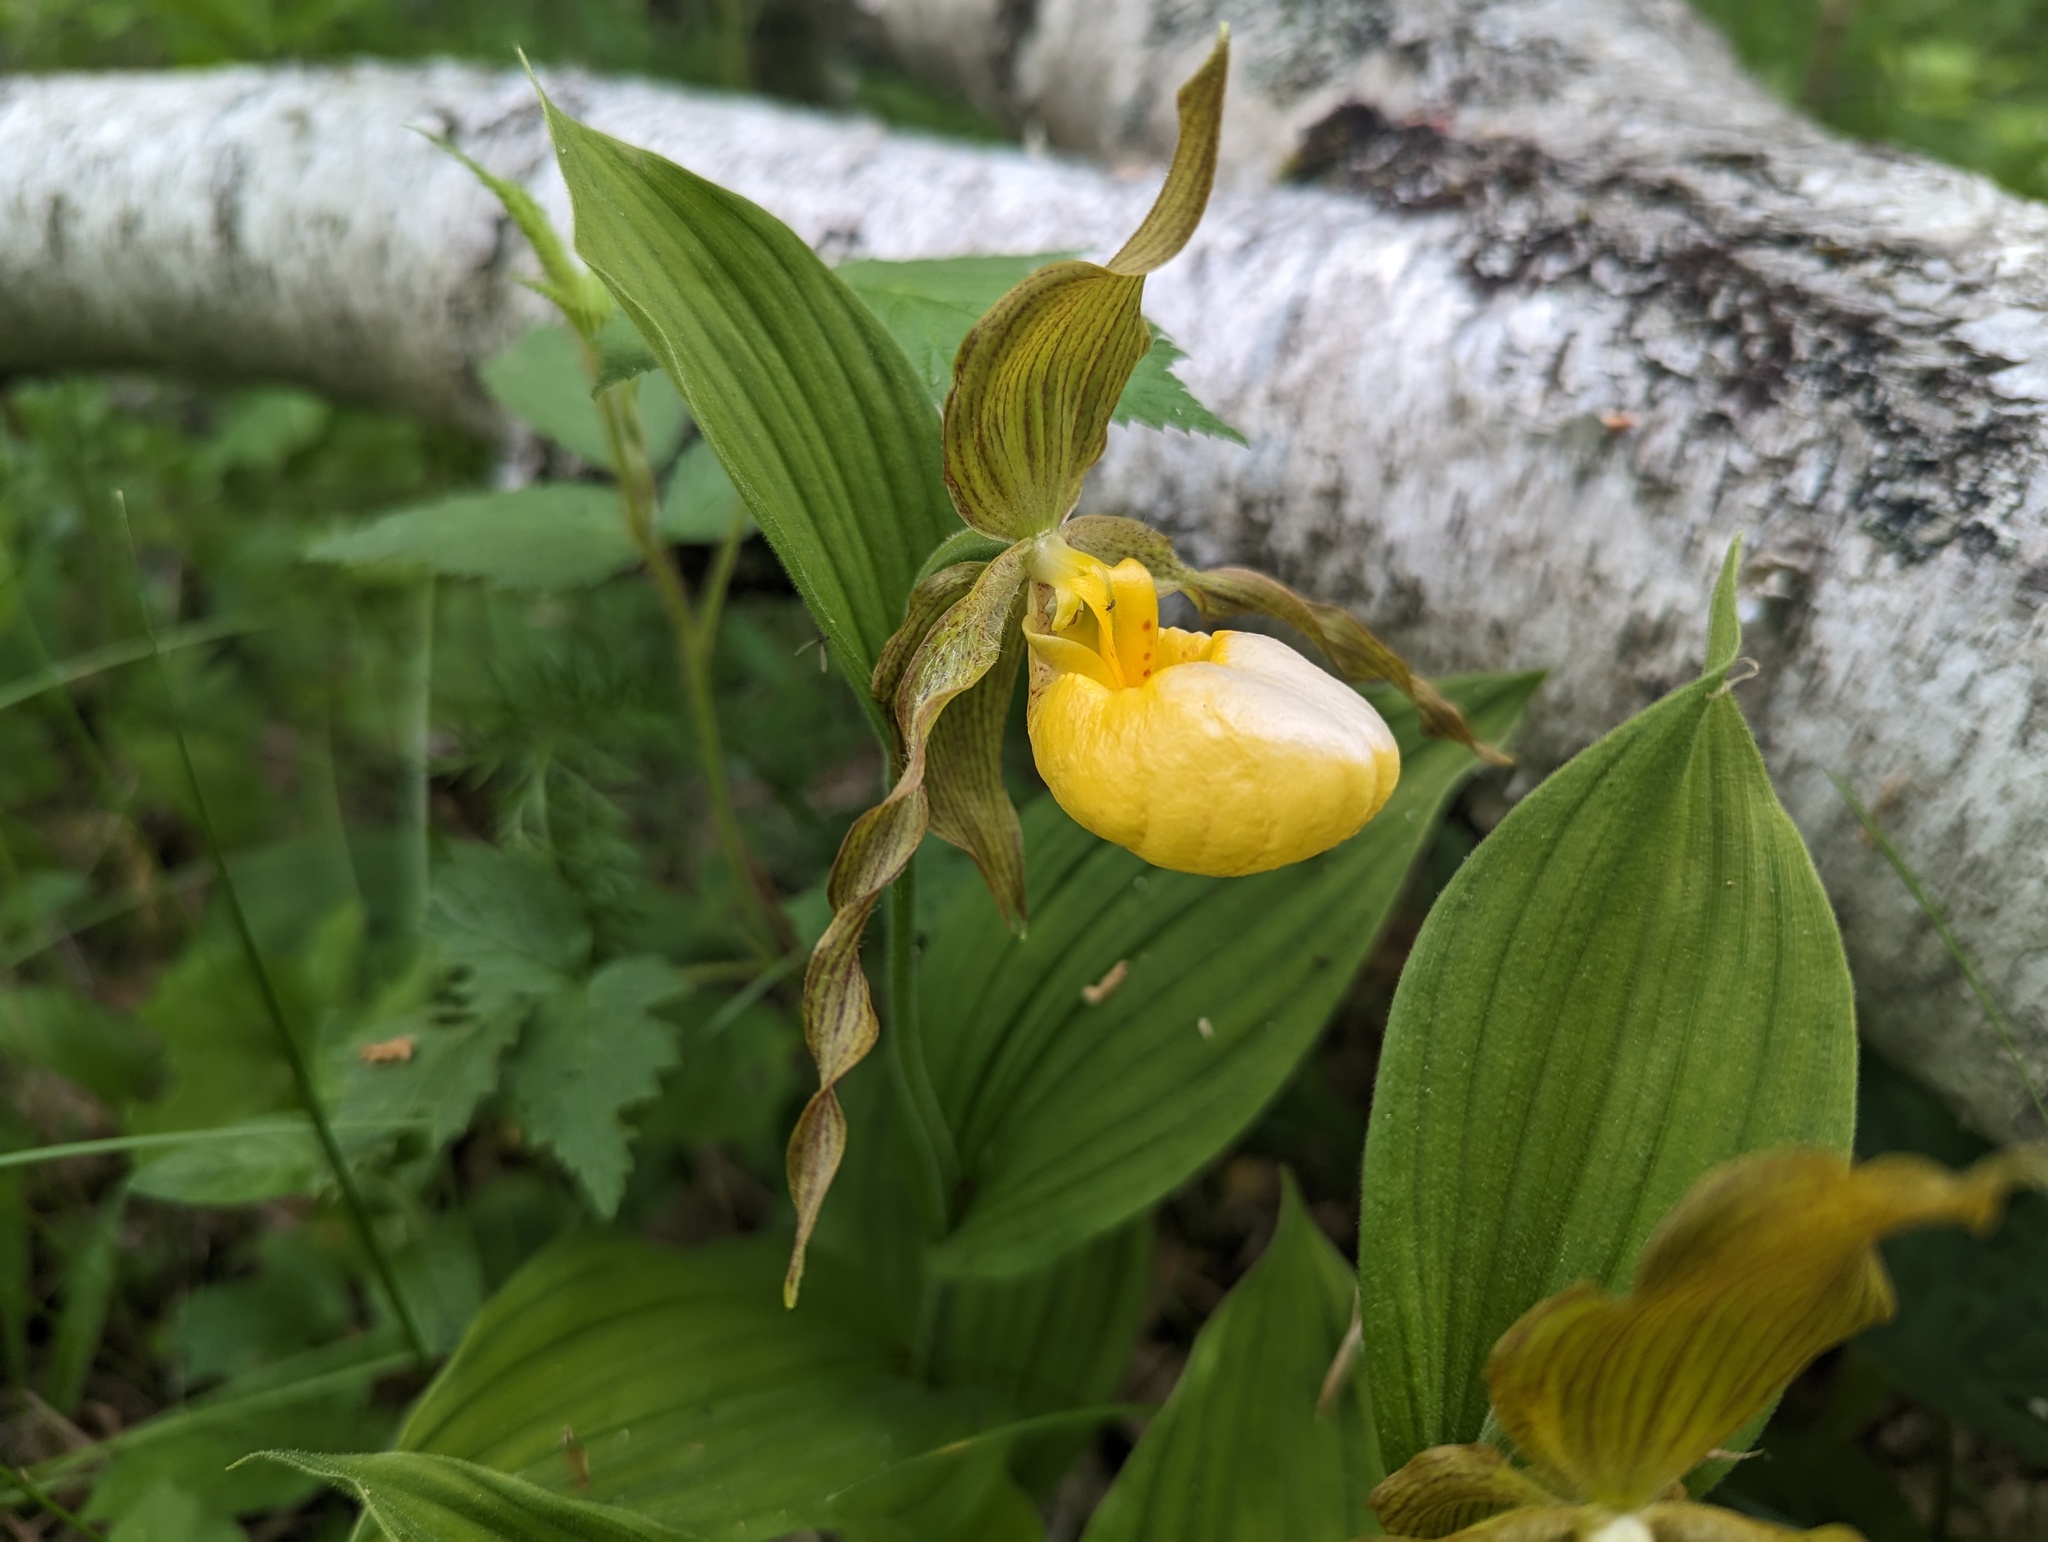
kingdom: Plantae
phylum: Tracheophyta
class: Liliopsida
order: Asparagales
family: Orchidaceae
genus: Cypripedium
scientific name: Cypripedium parviflorum
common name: American yellow lady's-slipper
